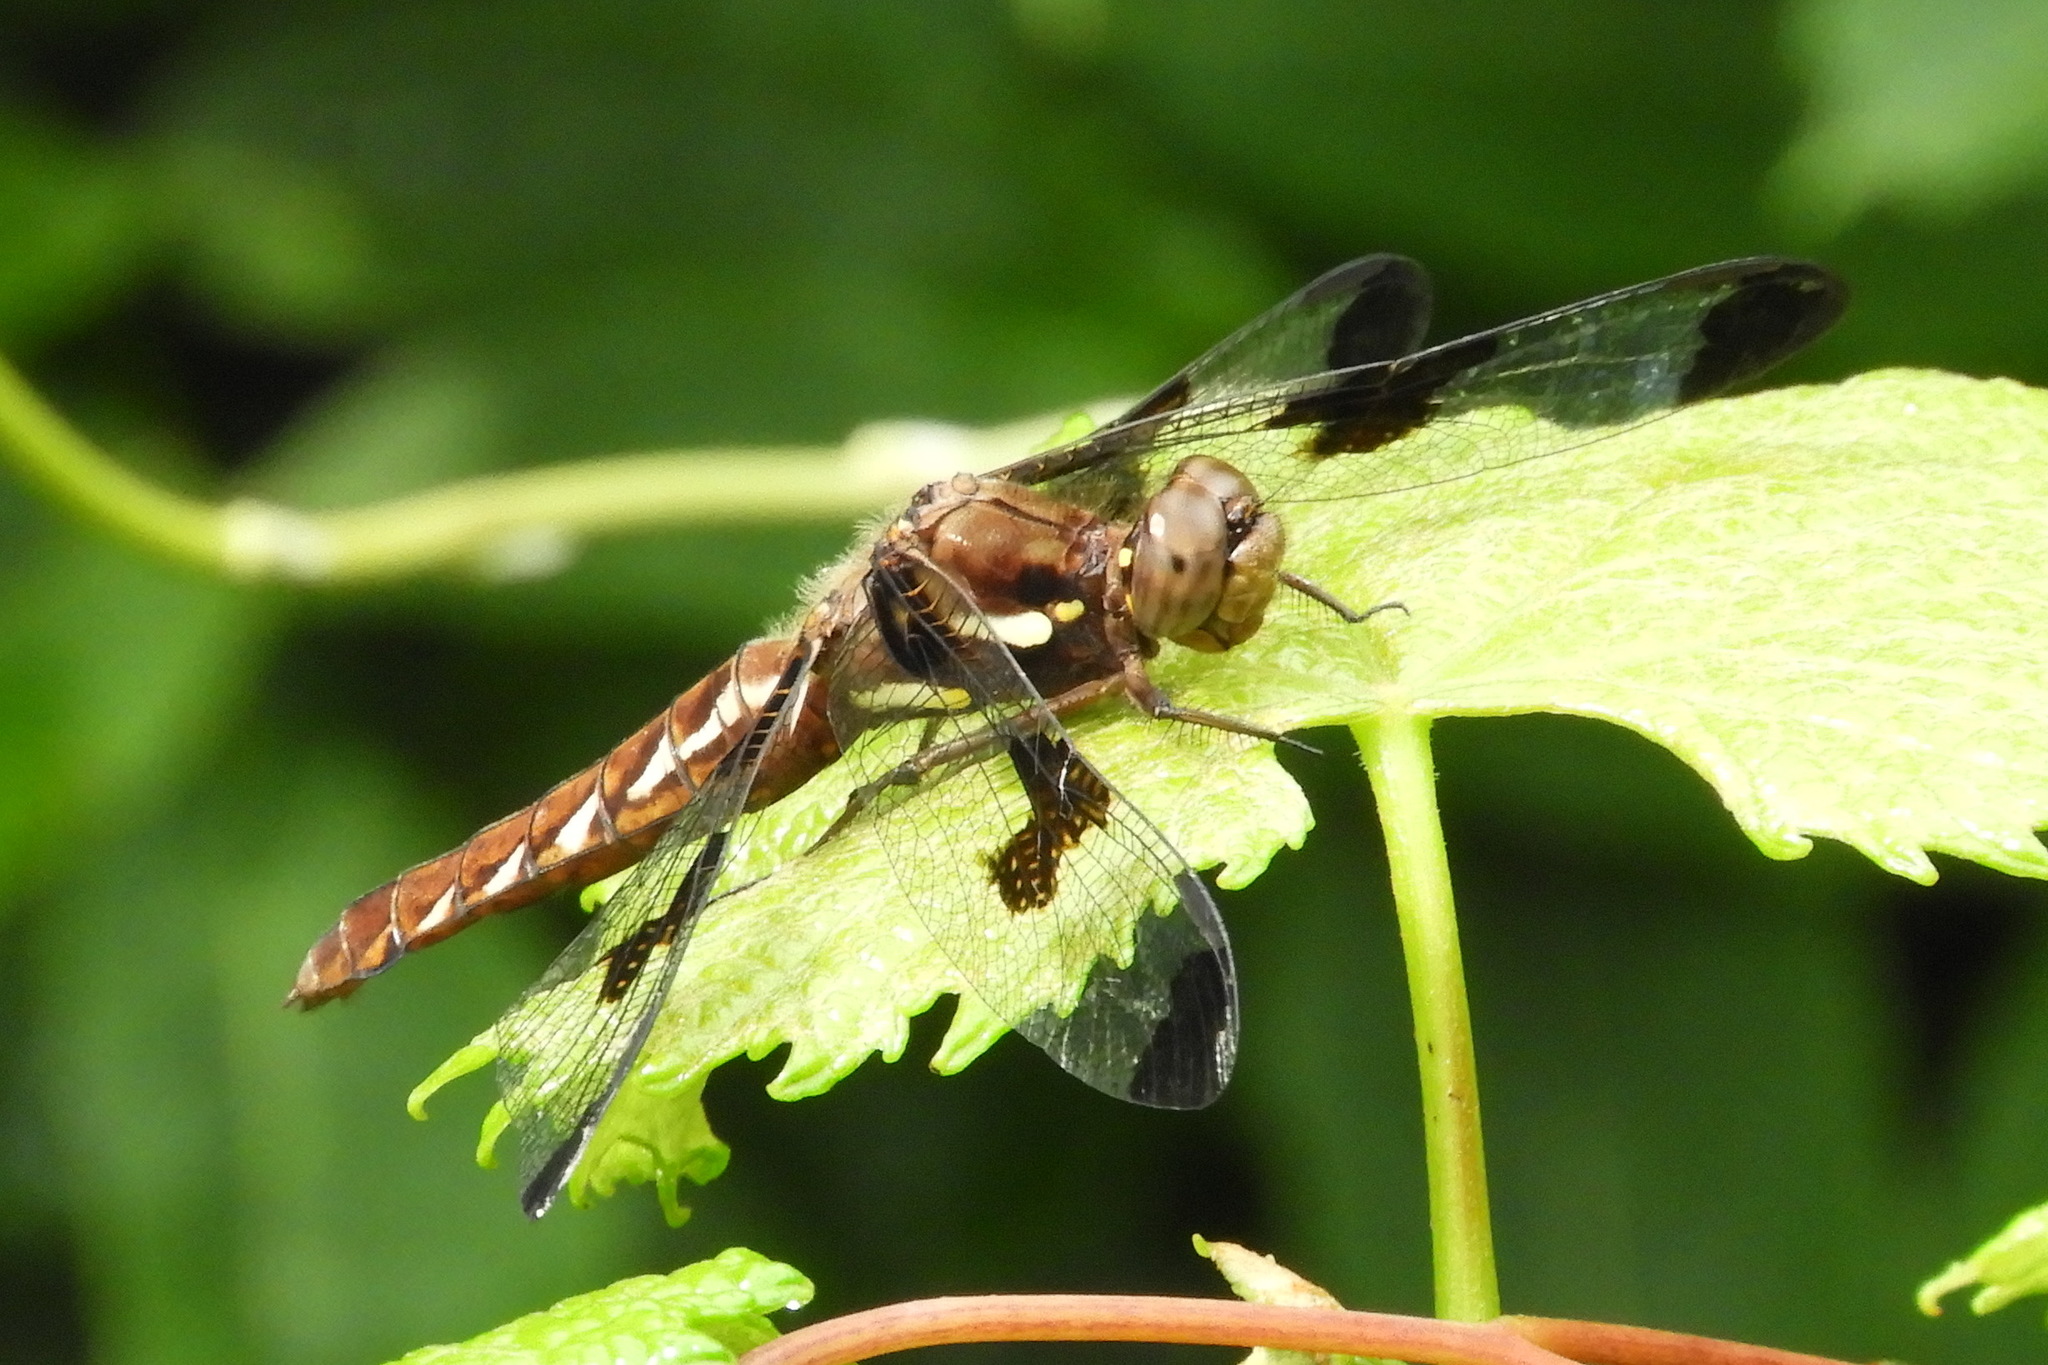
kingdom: Animalia
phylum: Arthropoda
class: Insecta
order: Odonata
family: Libellulidae
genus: Plathemis
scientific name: Plathemis lydia
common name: Common whitetail
